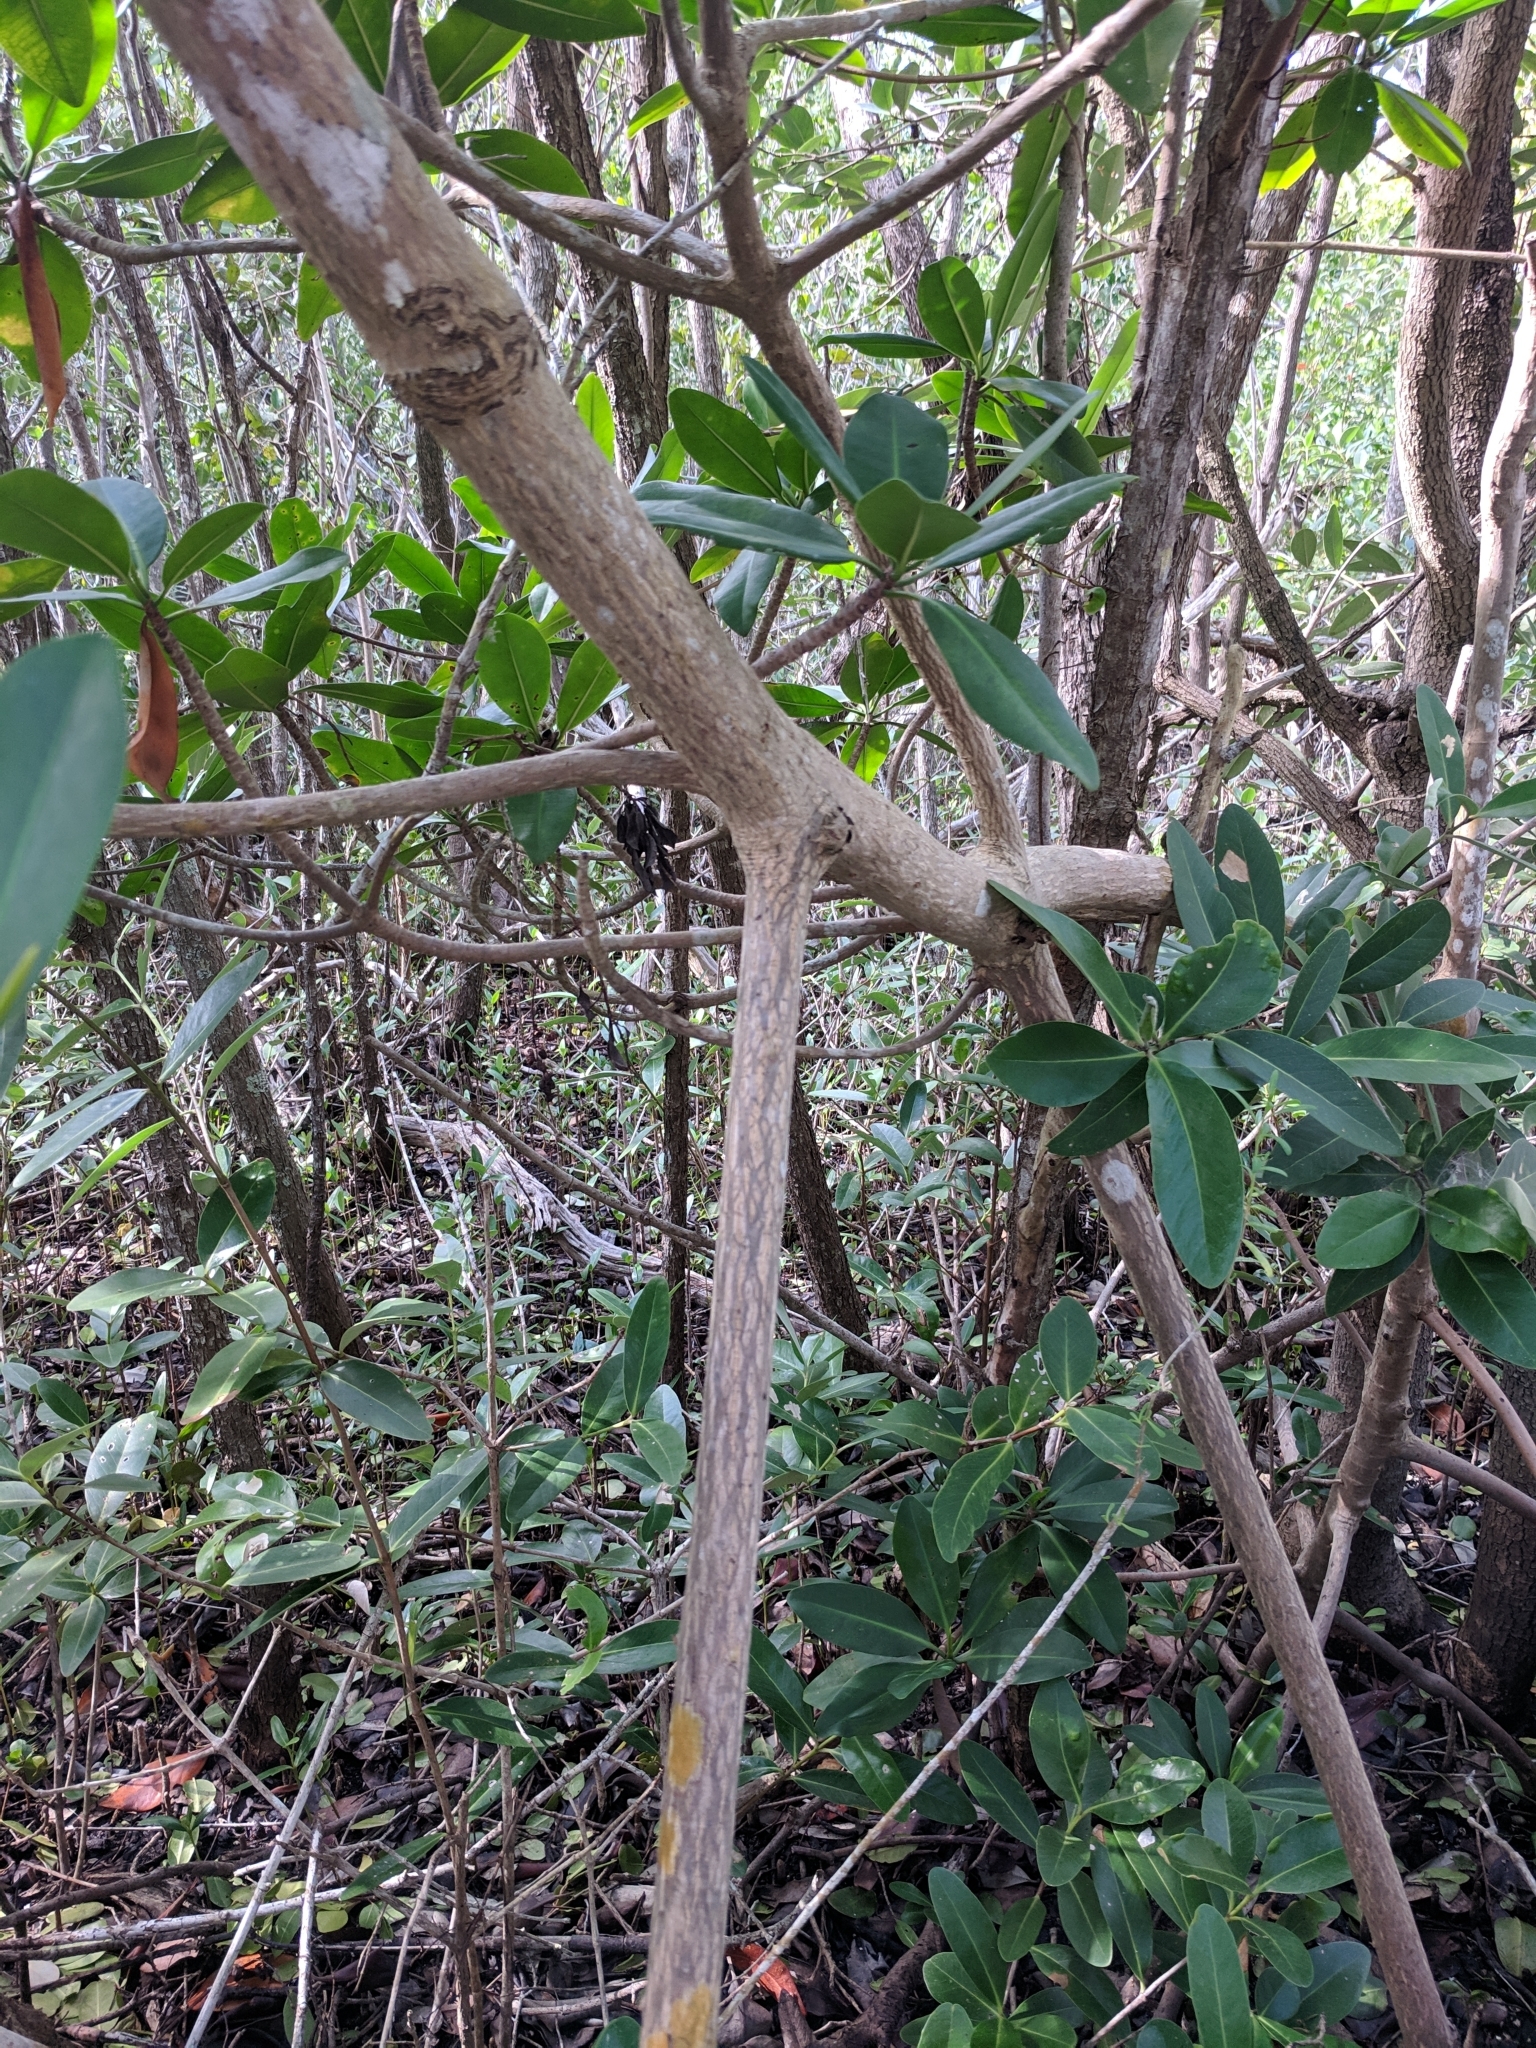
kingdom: Plantae
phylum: Tracheophyta
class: Magnoliopsida
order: Malpighiales
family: Rhizophoraceae
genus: Rhizophora
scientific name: Rhizophora mangle
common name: Red mangrove
